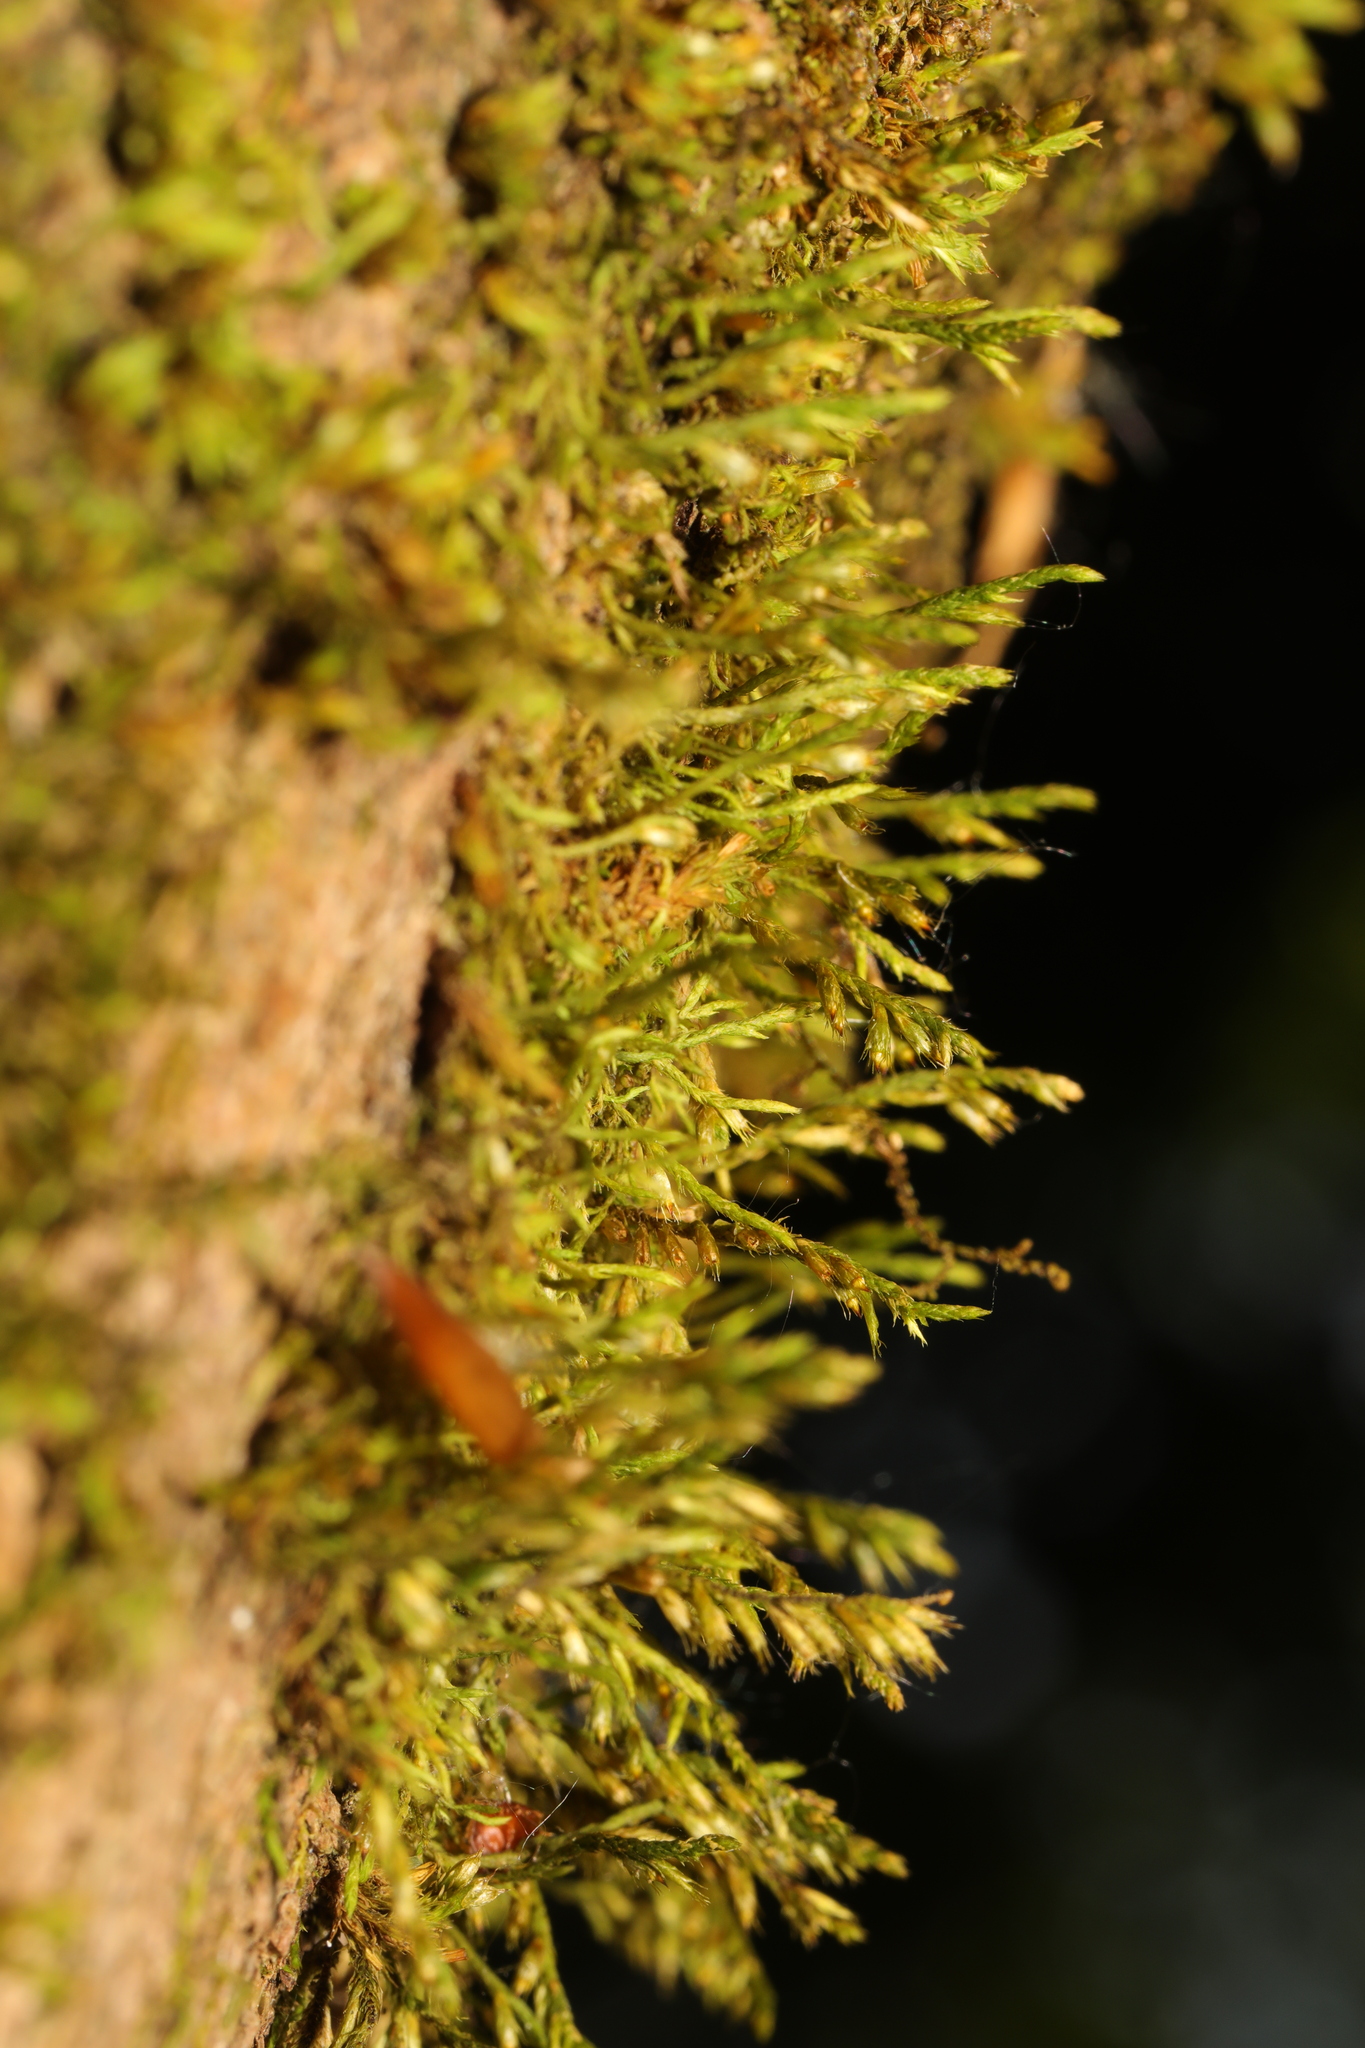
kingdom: Plantae
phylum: Bryophyta
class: Bryopsida
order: Hypnales
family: Cryphaeaceae
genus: Cryphaea
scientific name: Cryphaea heteromalla
